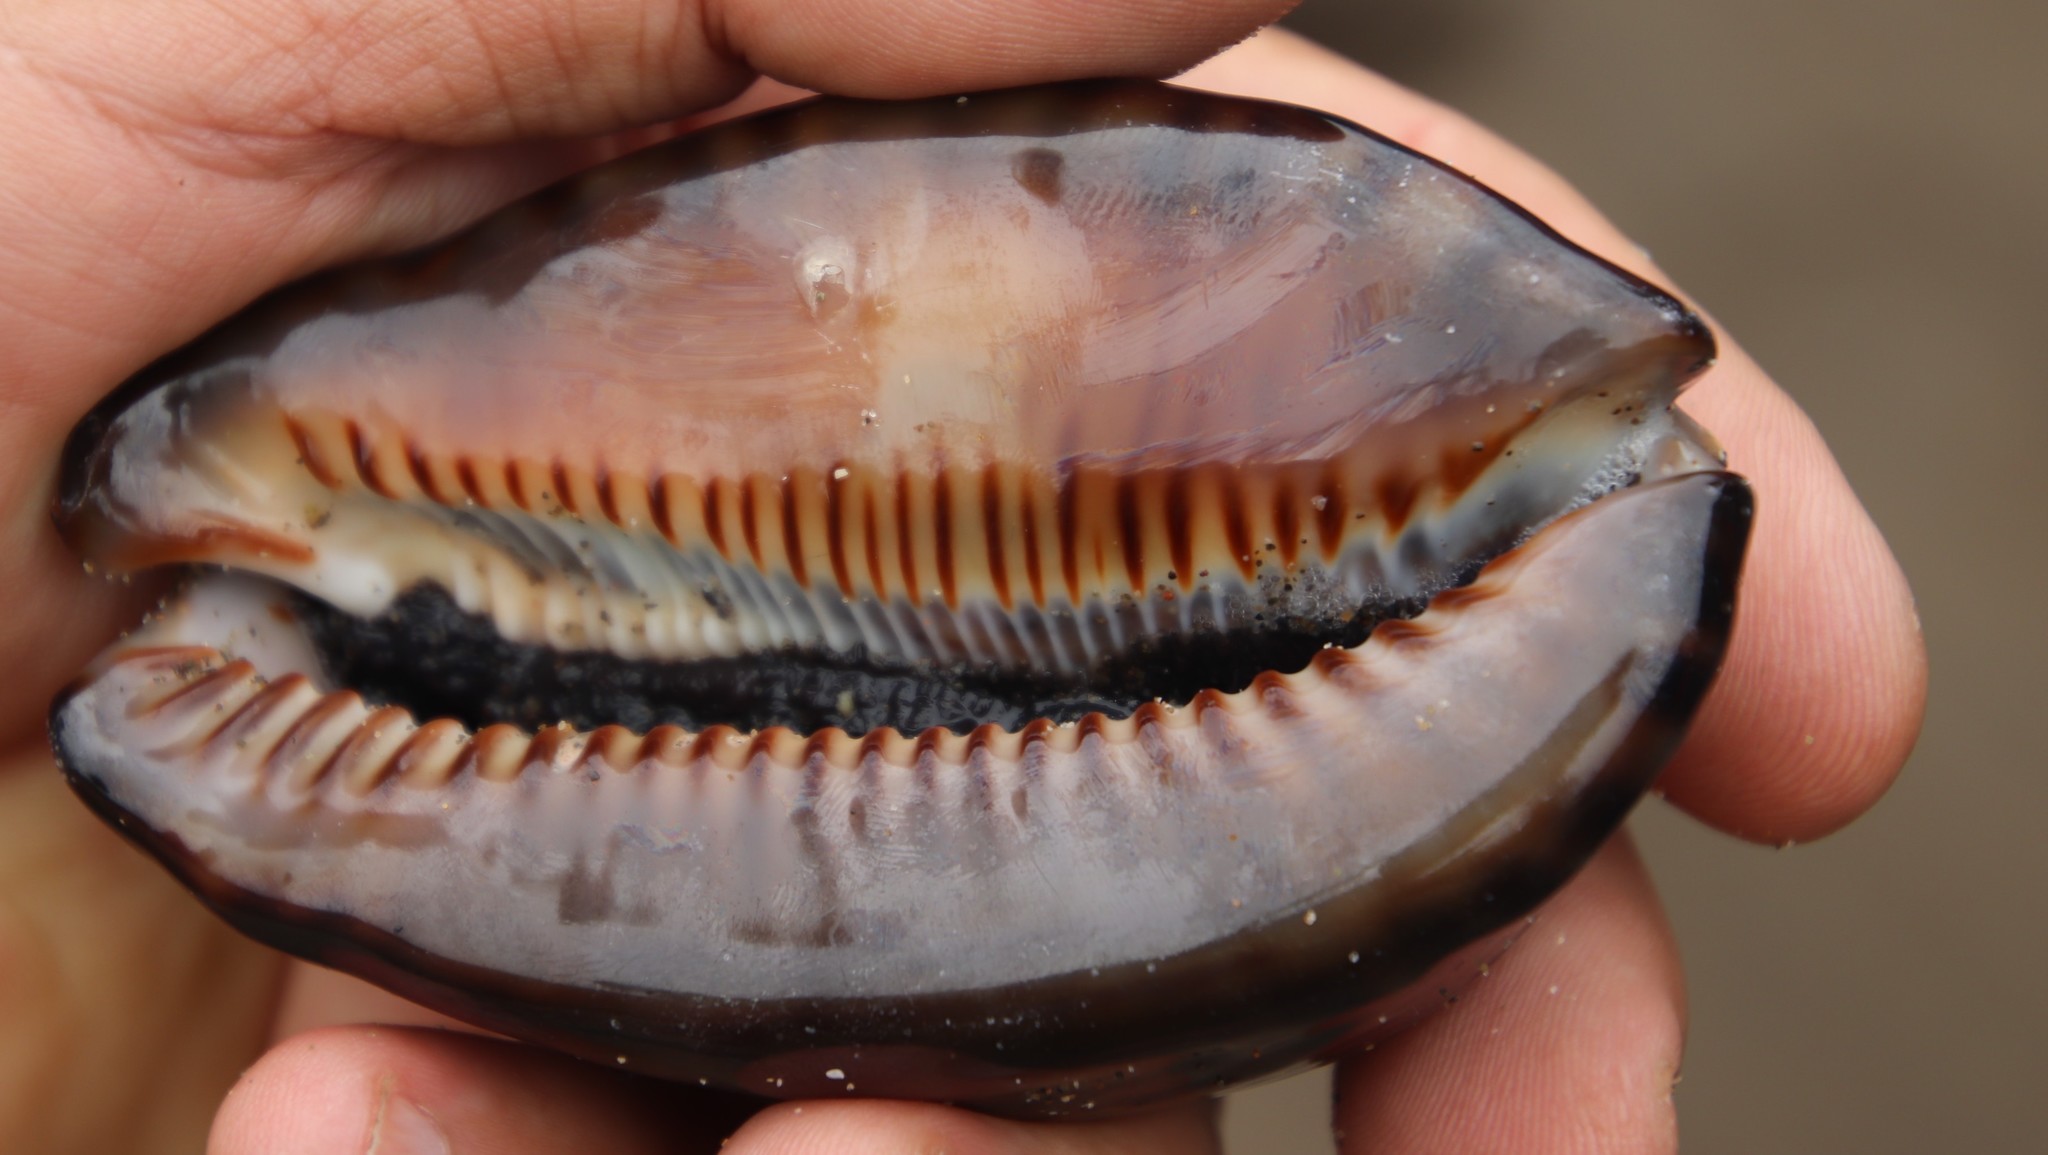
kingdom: Animalia
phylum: Mollusca
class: Gastropoda
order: Littorinimorpha
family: Cypraeidae
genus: Mauritia
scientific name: Mauritia arabica
